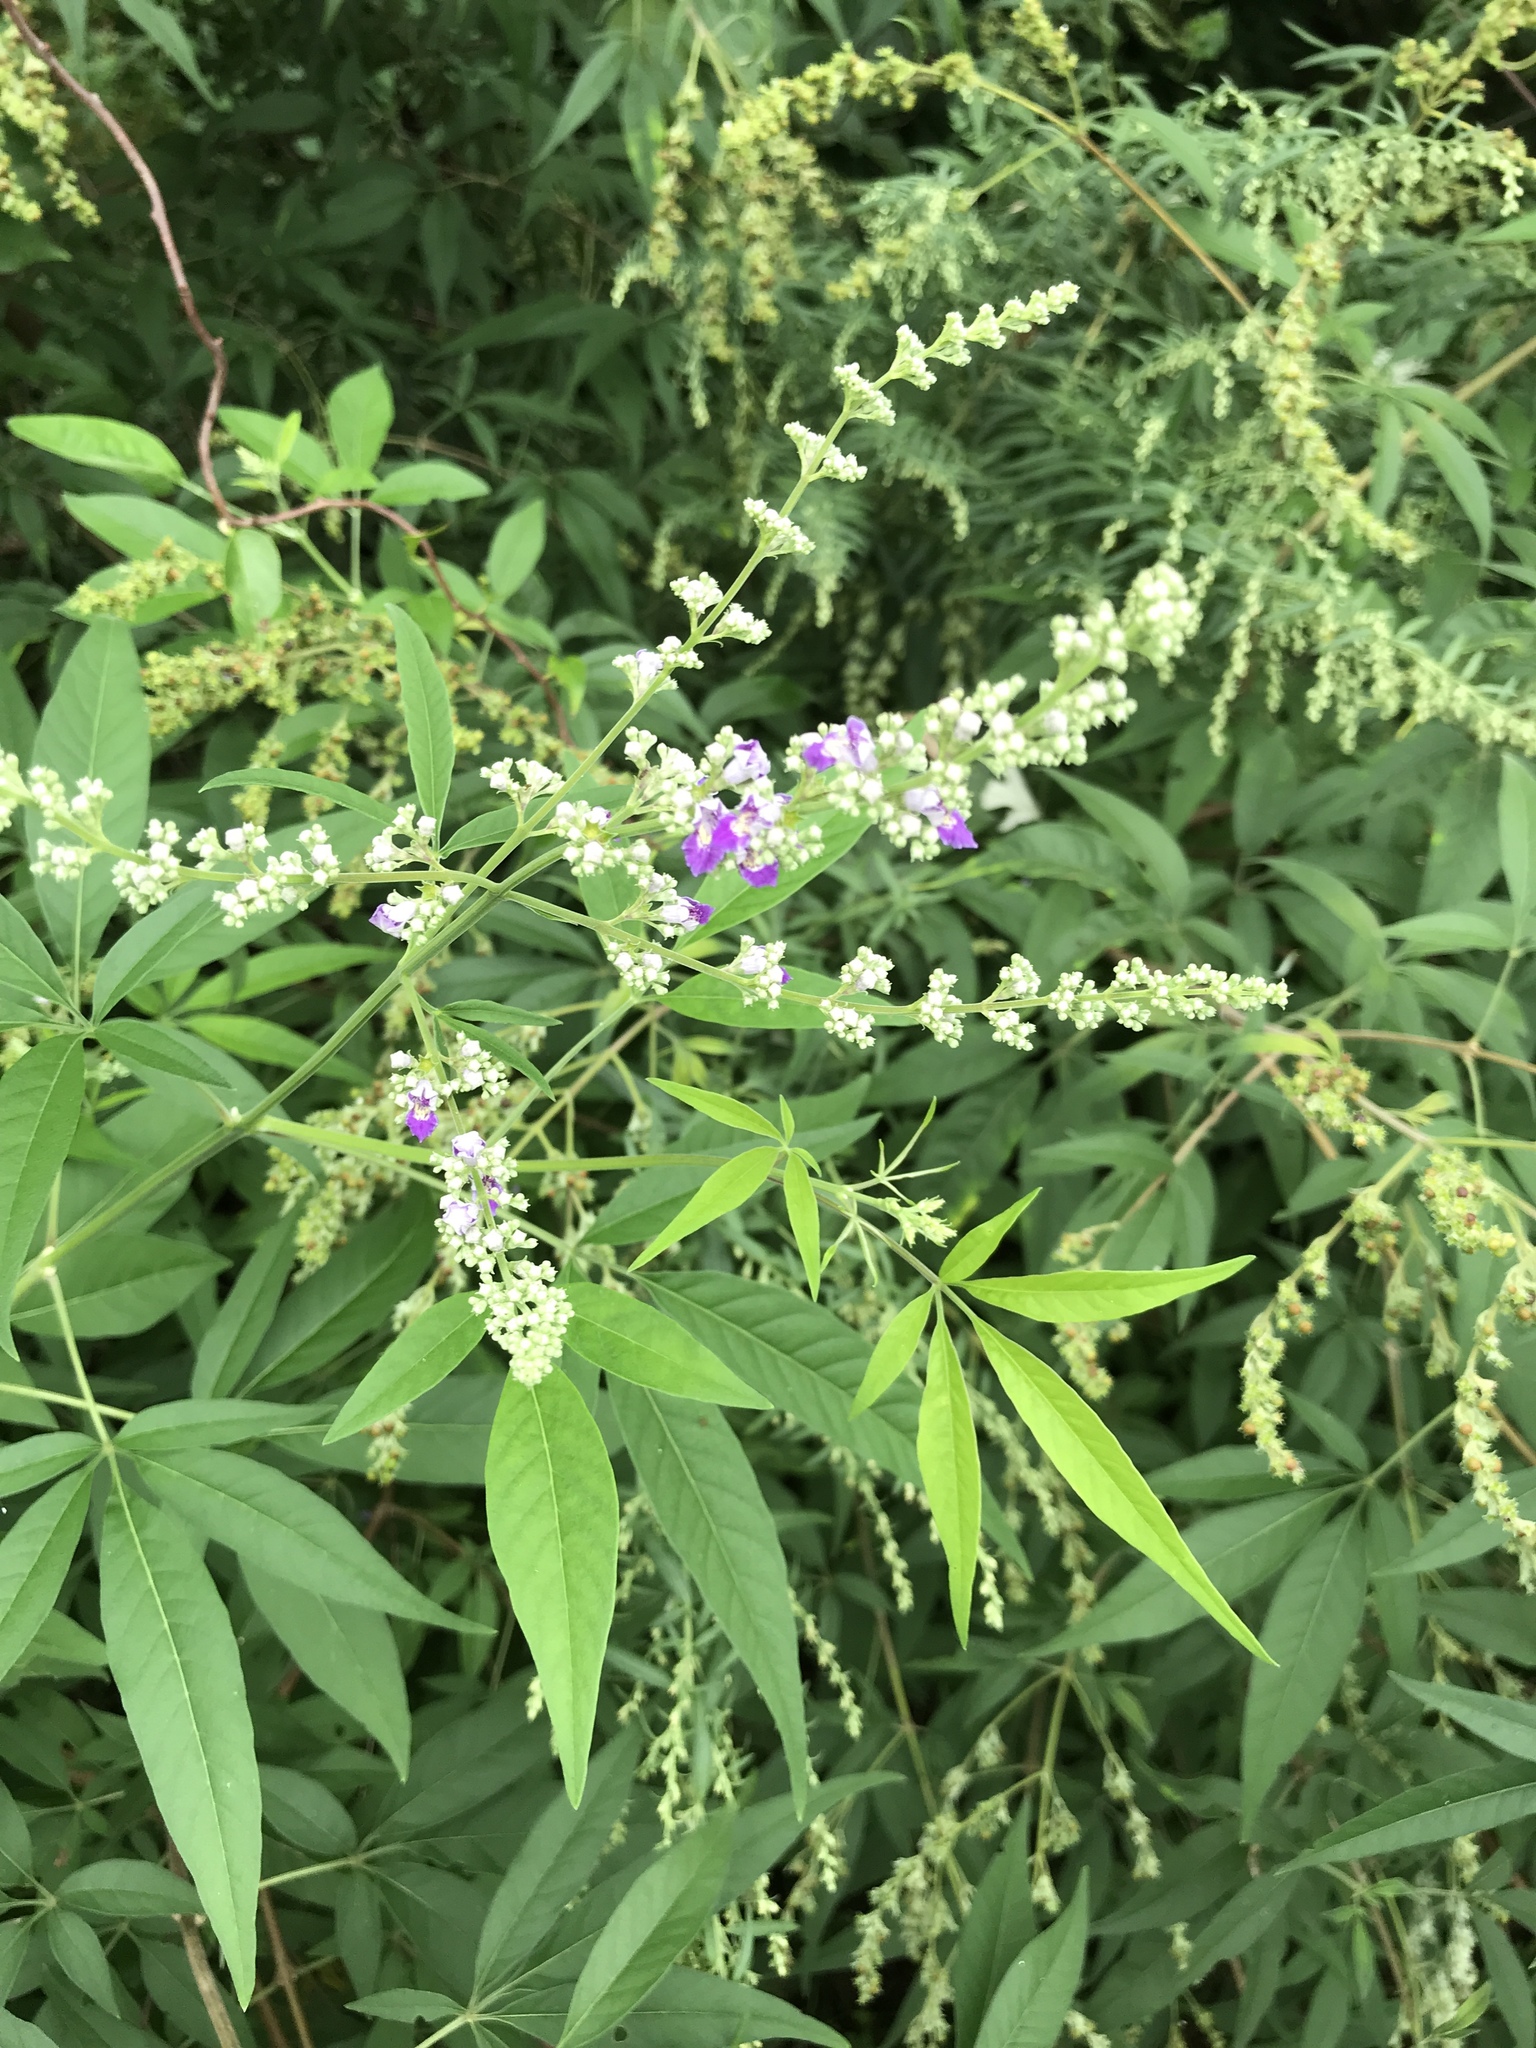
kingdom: Plantae
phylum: Tracheophyta
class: Magnoliopsida
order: Lamiales
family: Lamiaceae
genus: Vitex
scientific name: Vitex negundo
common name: Chinese chastetree
